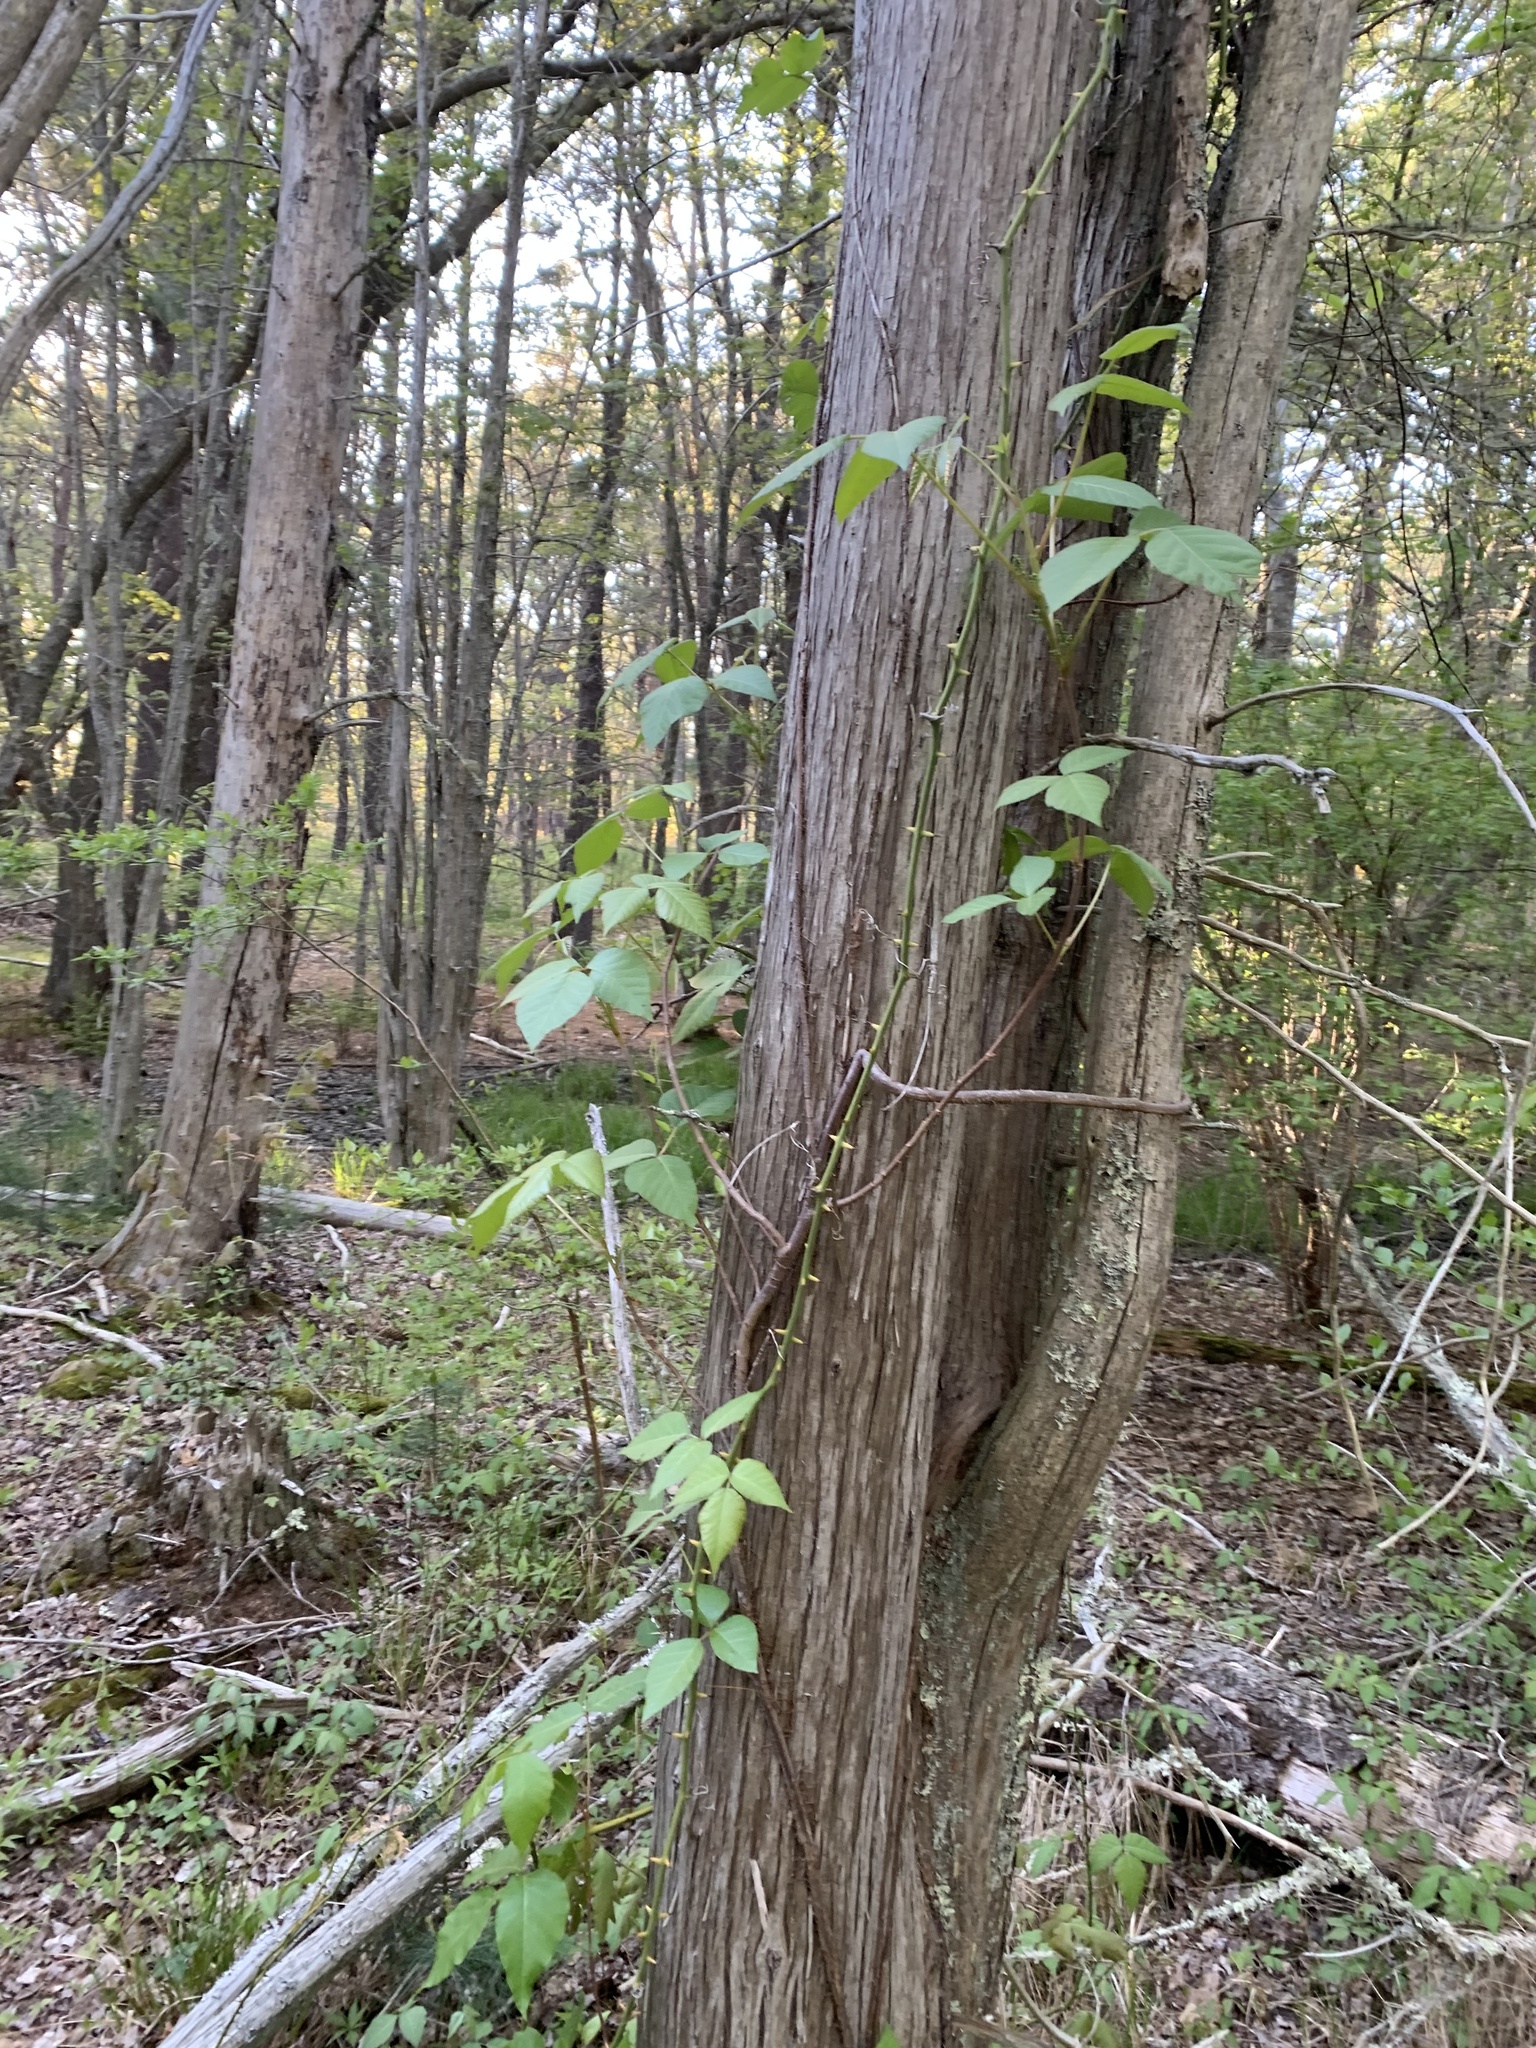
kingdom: Plantae
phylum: Tracheophyta
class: Magnoliopsida
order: Sapindales
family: Anacardiaceae
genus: Toxicodendron
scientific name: Toxicodendron radicans
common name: Poison ivy
